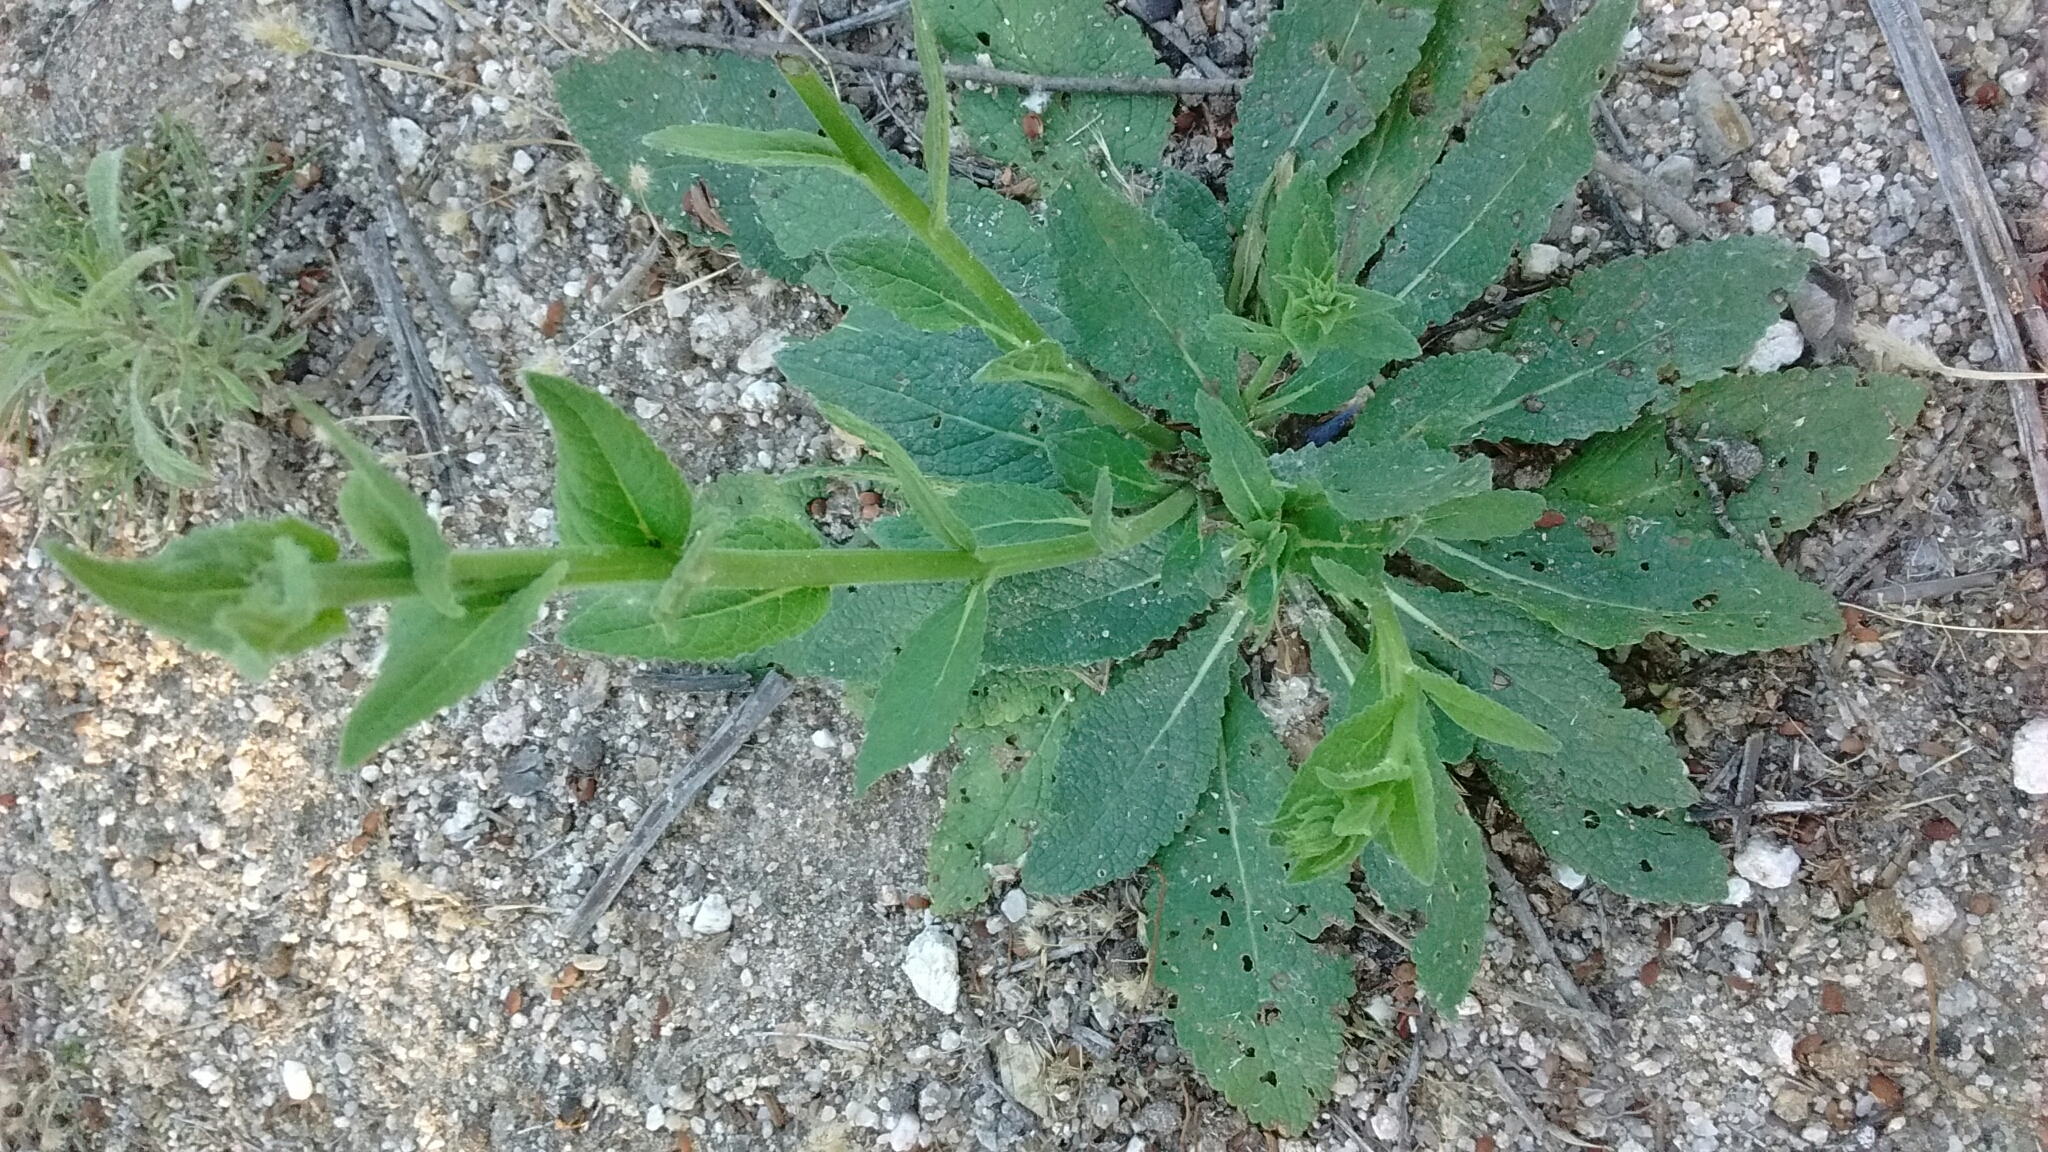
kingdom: Plantae
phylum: Tracheophyta
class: Magnoliopsida
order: Lamiales
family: Scrophulariaceae
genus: Verbascum
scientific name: Verbascum virgatum
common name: Twiggy mullein
